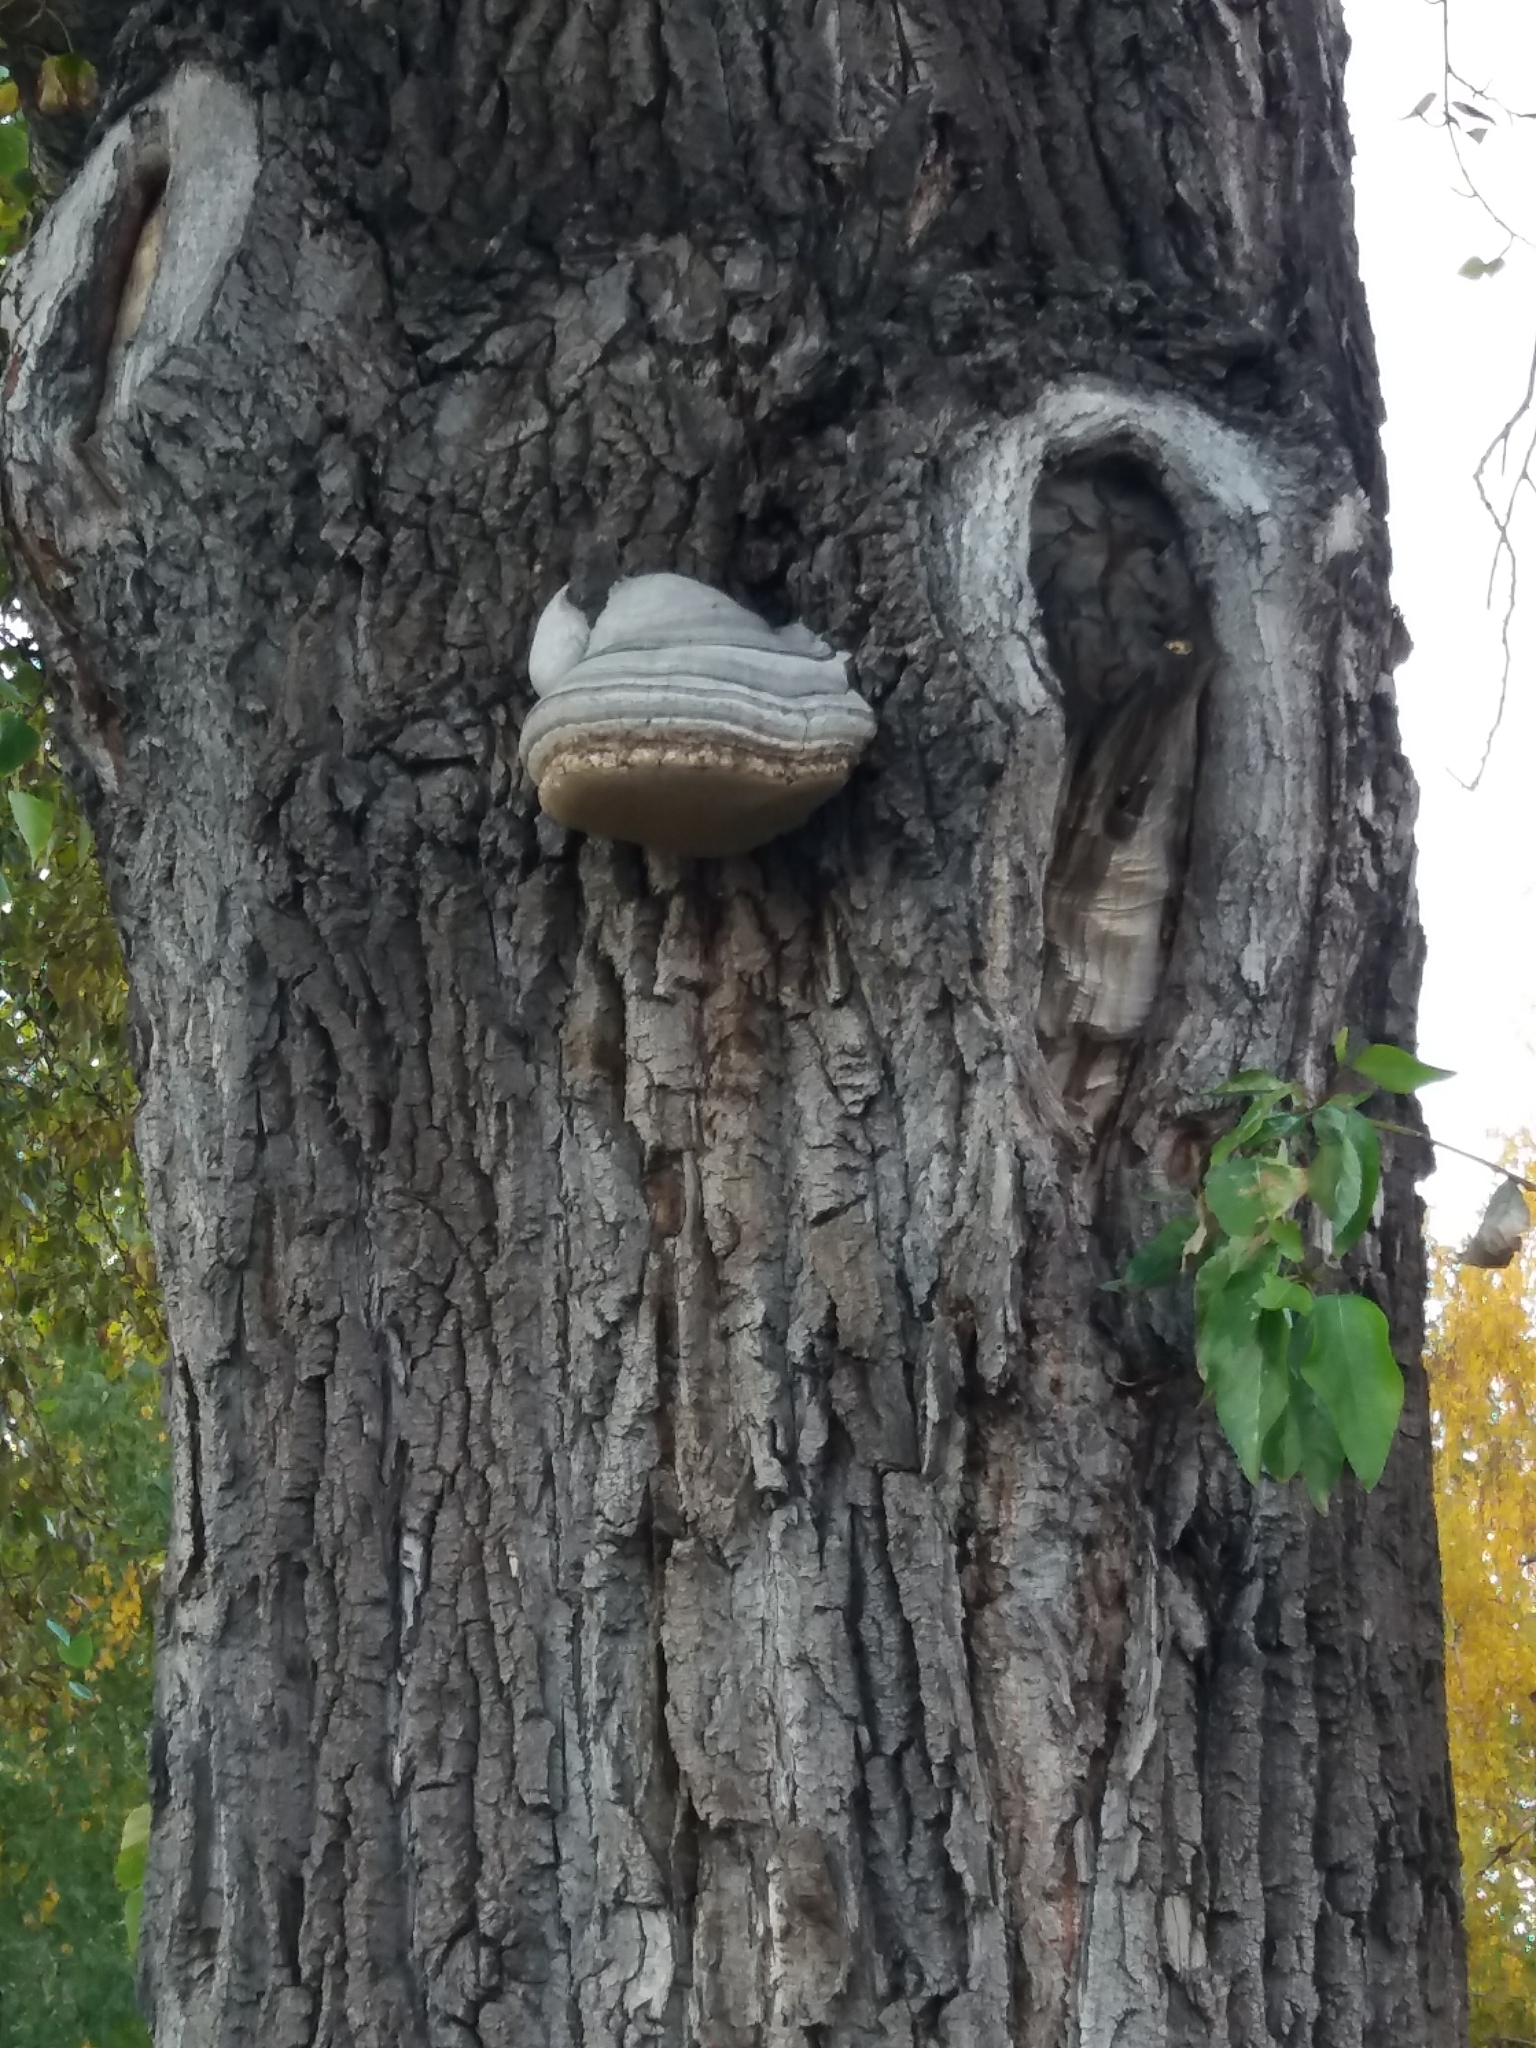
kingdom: Fungi
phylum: Basidiomycota
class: Agaricomycetes
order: Polyporales
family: Polyporaceae
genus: Fomes
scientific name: Fomes fomentarius
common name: Hoof fungus
